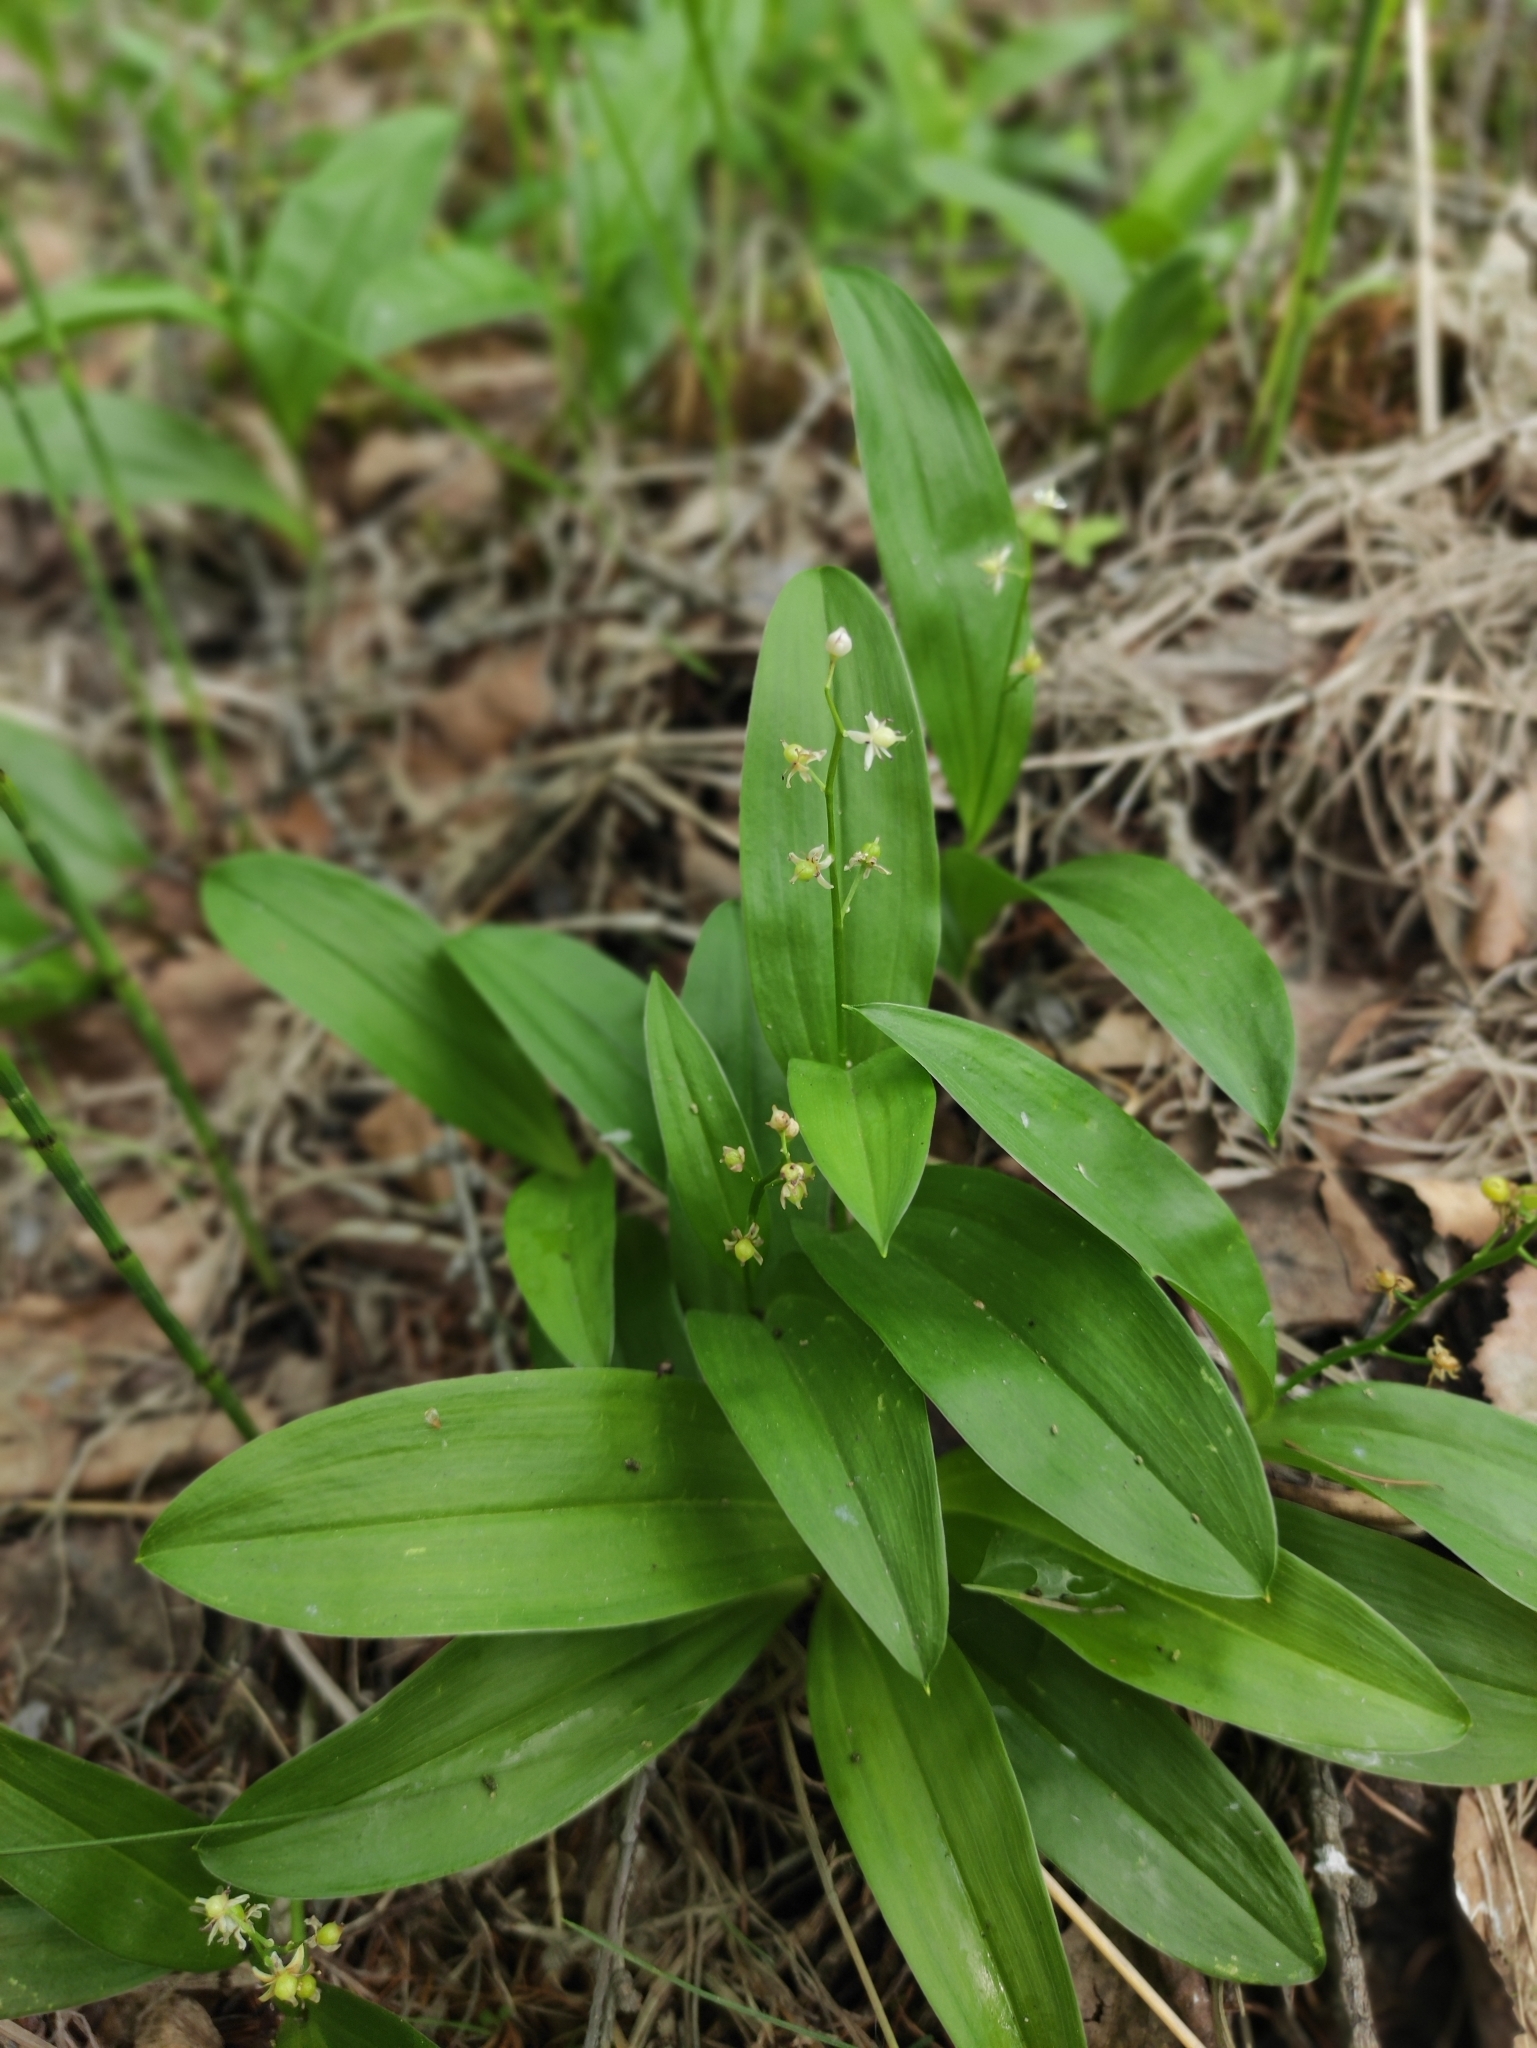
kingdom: Plantae
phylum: Tracheophyta
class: Liliopsida
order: Asparagales
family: Asparagaceae
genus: Maianthemum
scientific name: Maianthemum trifolium
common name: Swamp false solomon's seal
